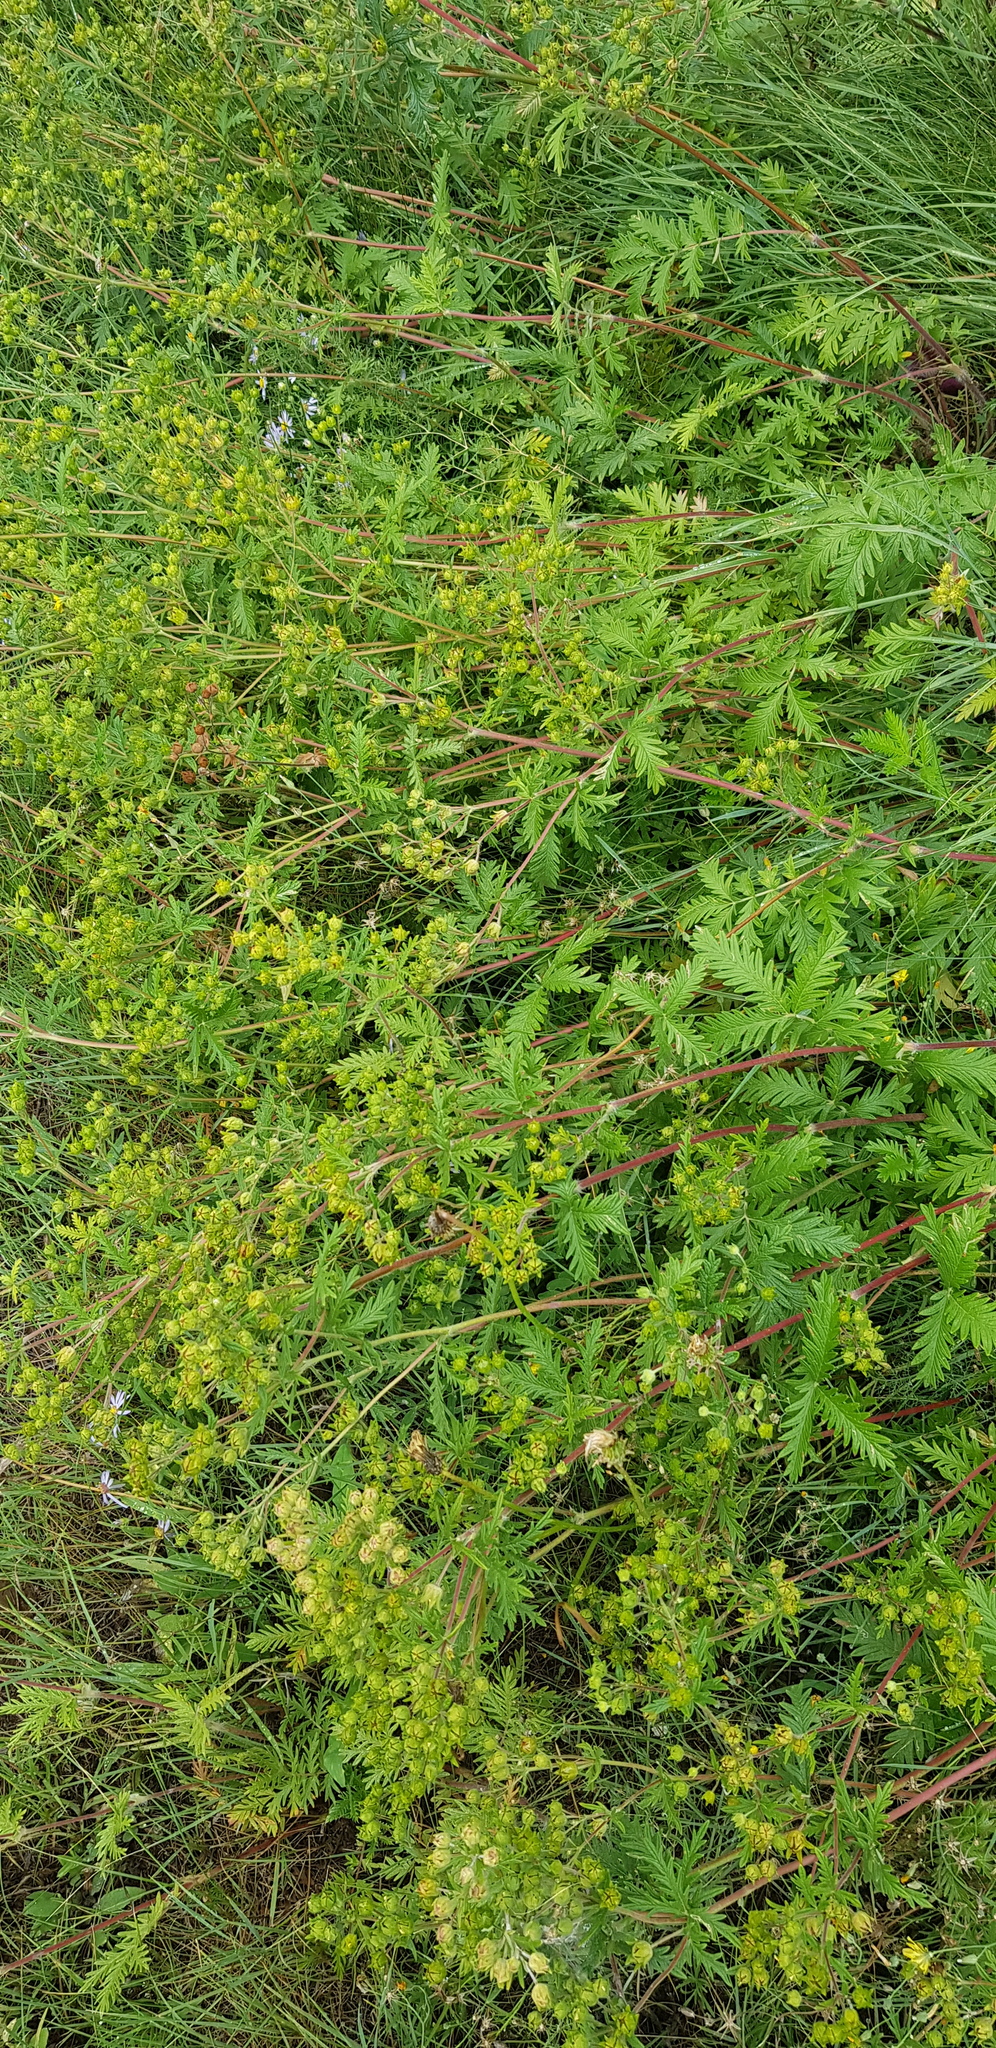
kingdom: Plantae
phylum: Tracheophyta
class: Magnoliopsida
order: Rosales
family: Rosaceae
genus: Potentilla
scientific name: Potentilla tanacetifolia
